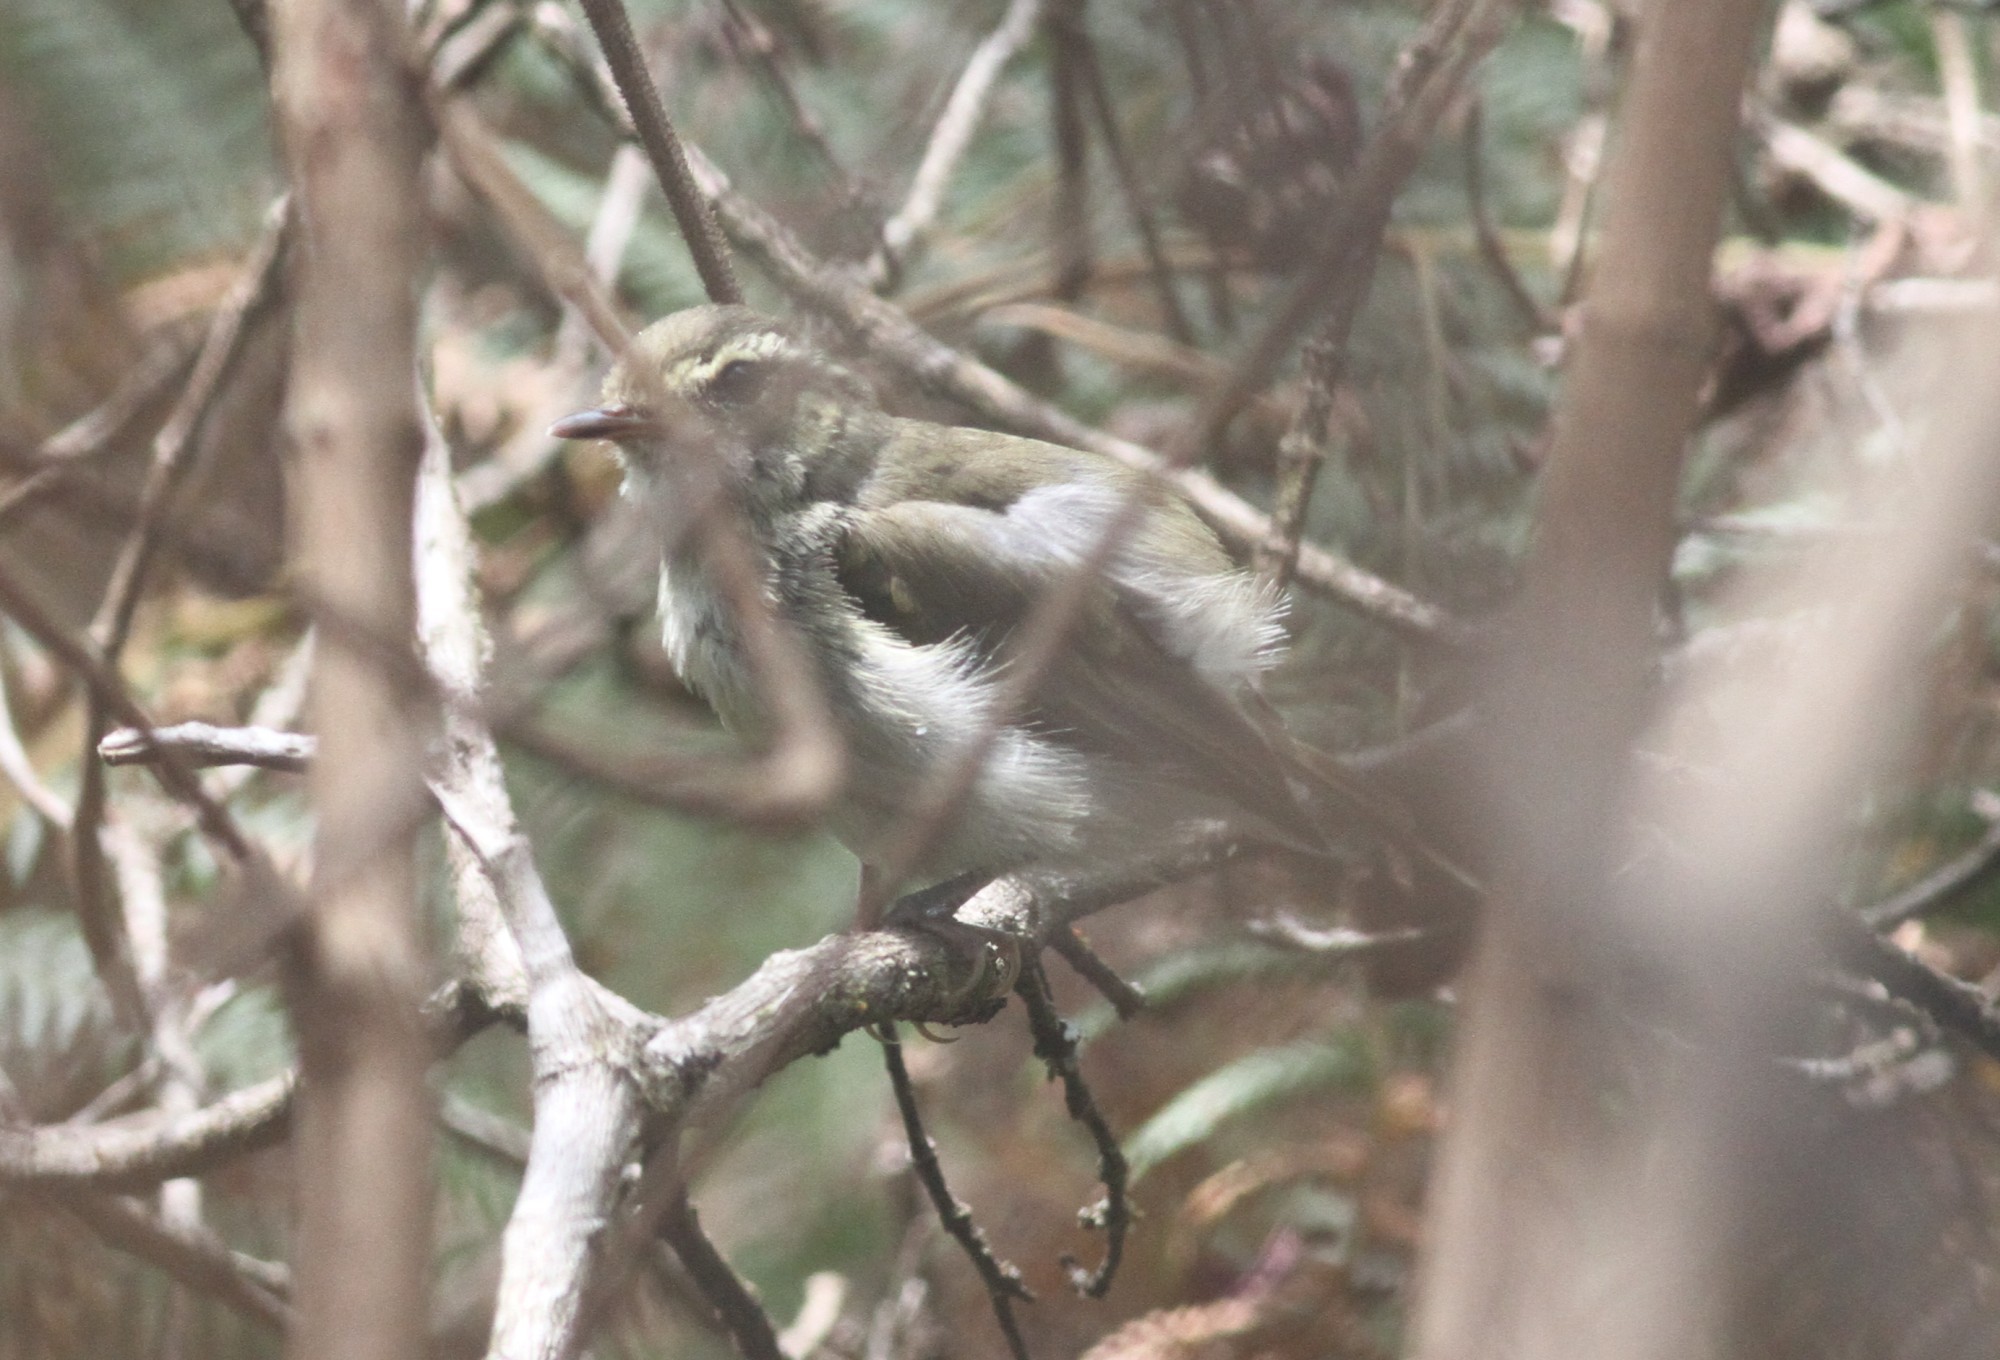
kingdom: Animalia
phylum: Chordata
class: Aves
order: Passeriformes
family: Phylloscopidae
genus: Phylloscopus
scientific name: Phylloscopus magnirostris
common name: Large-billed leaf warbler
